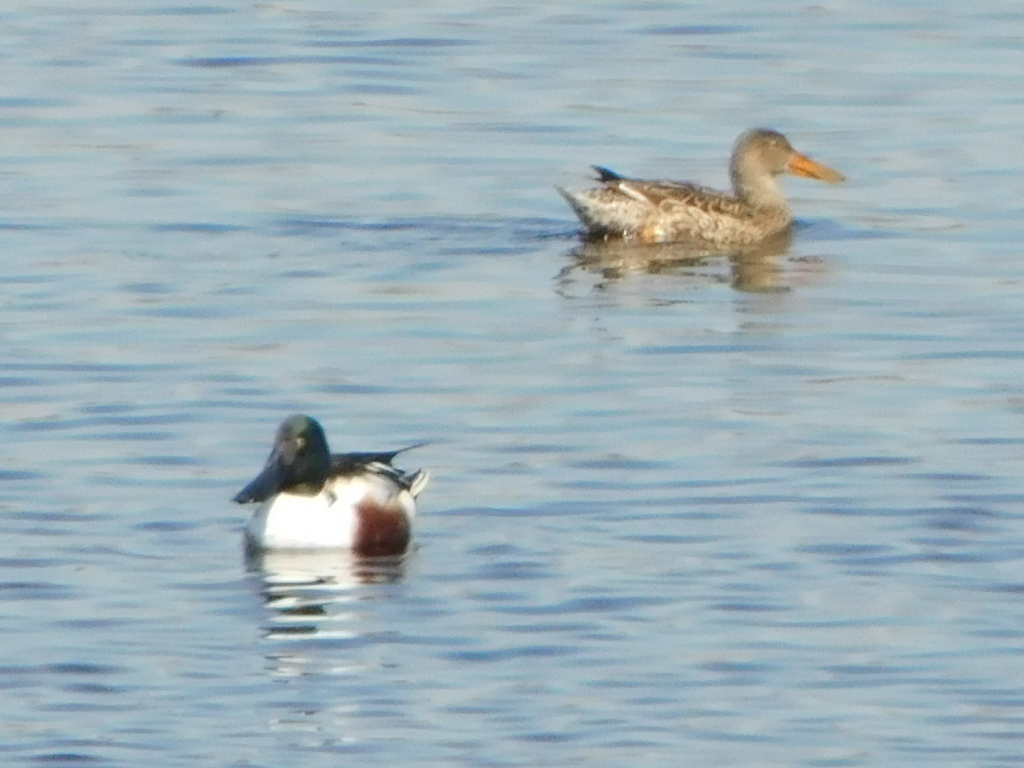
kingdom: Animalia
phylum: Chordata
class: Aves
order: Anseriformes
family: Anatidae
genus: Spatula
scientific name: Spatula clypeata
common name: Northern shoveler
